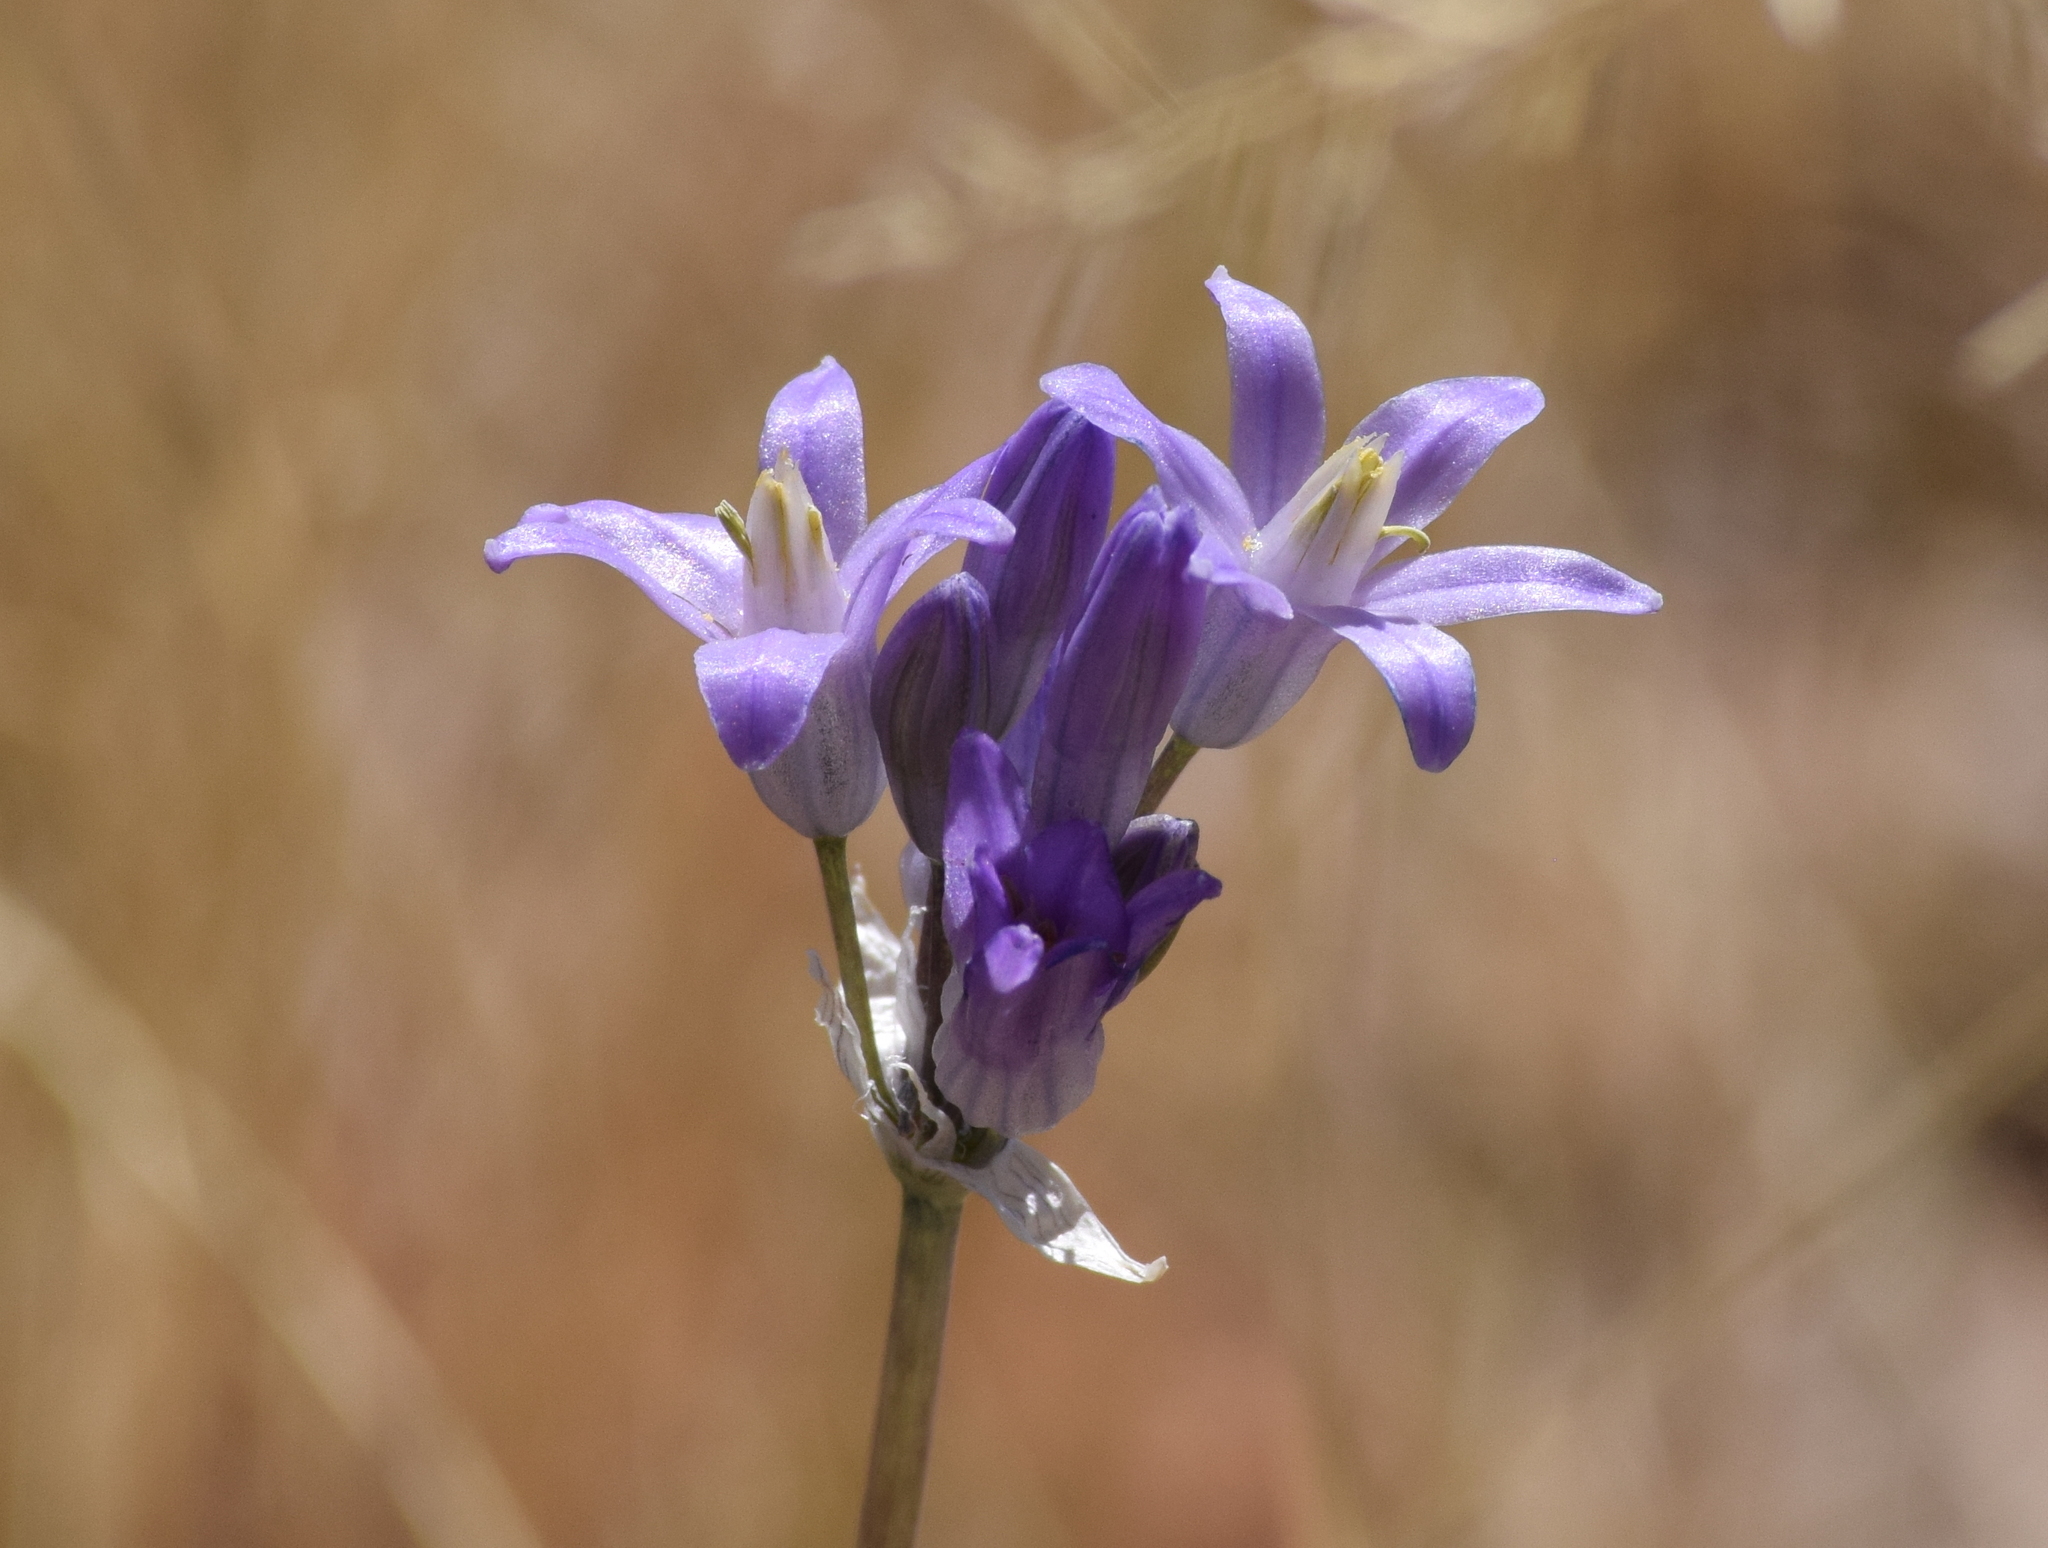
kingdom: Plantae
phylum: Tracheophyta
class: Liliopsida
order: Asparagales
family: Asparagaceae
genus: Dipterostemon
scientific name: Dipterostemon capitatus
